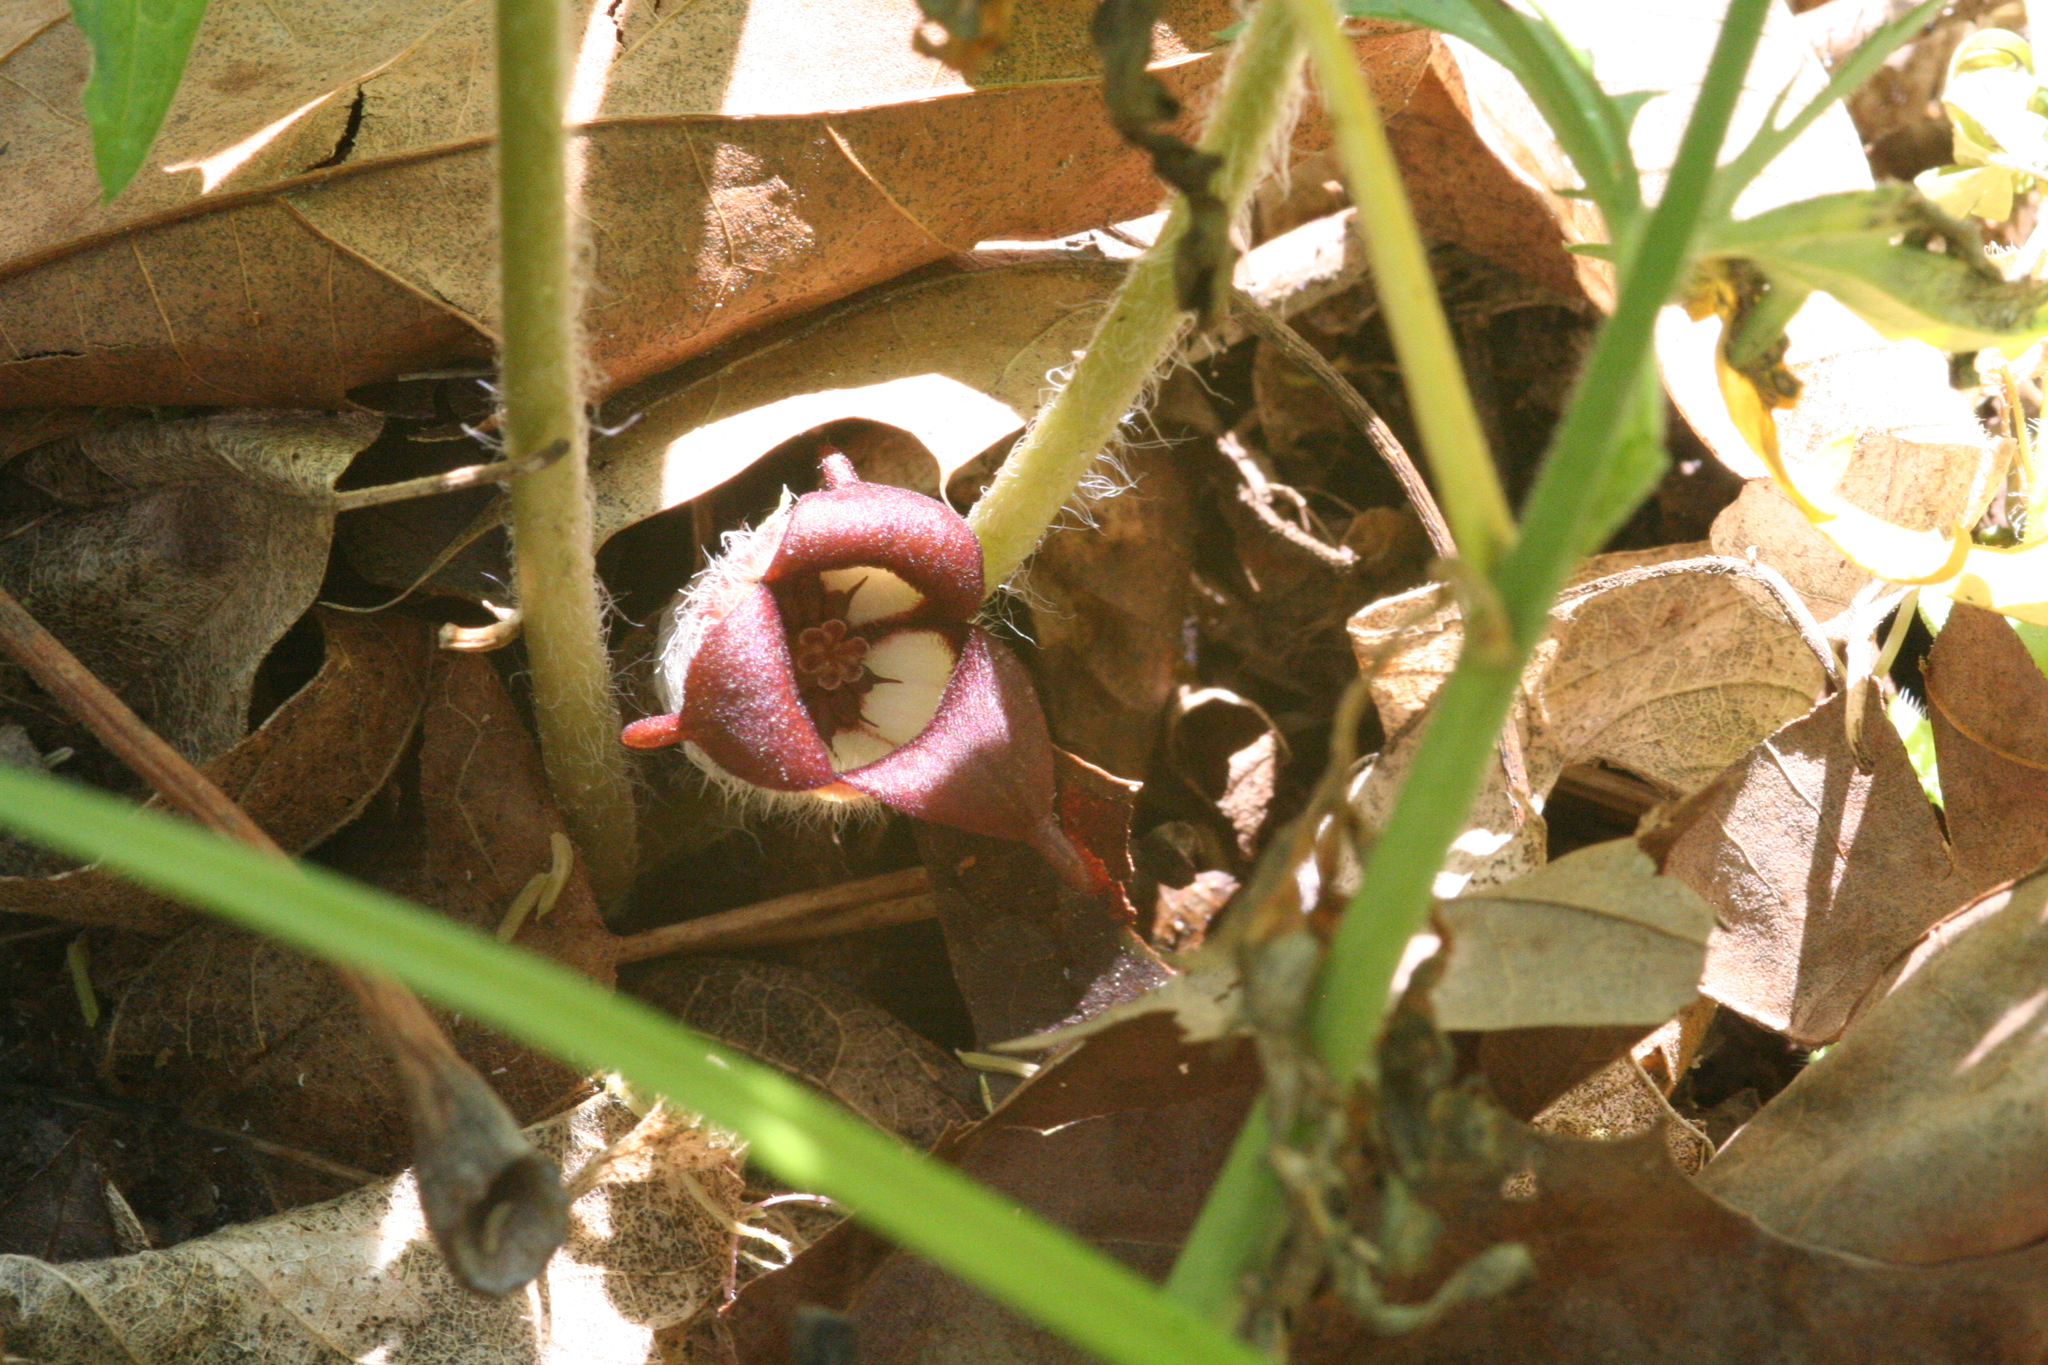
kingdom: Plantae
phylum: Tracheophyta
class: Magnoliopsida
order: Piperales
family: Aristolochiaceae
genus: Asarum
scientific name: Asarum canadense
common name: Wild ginger
